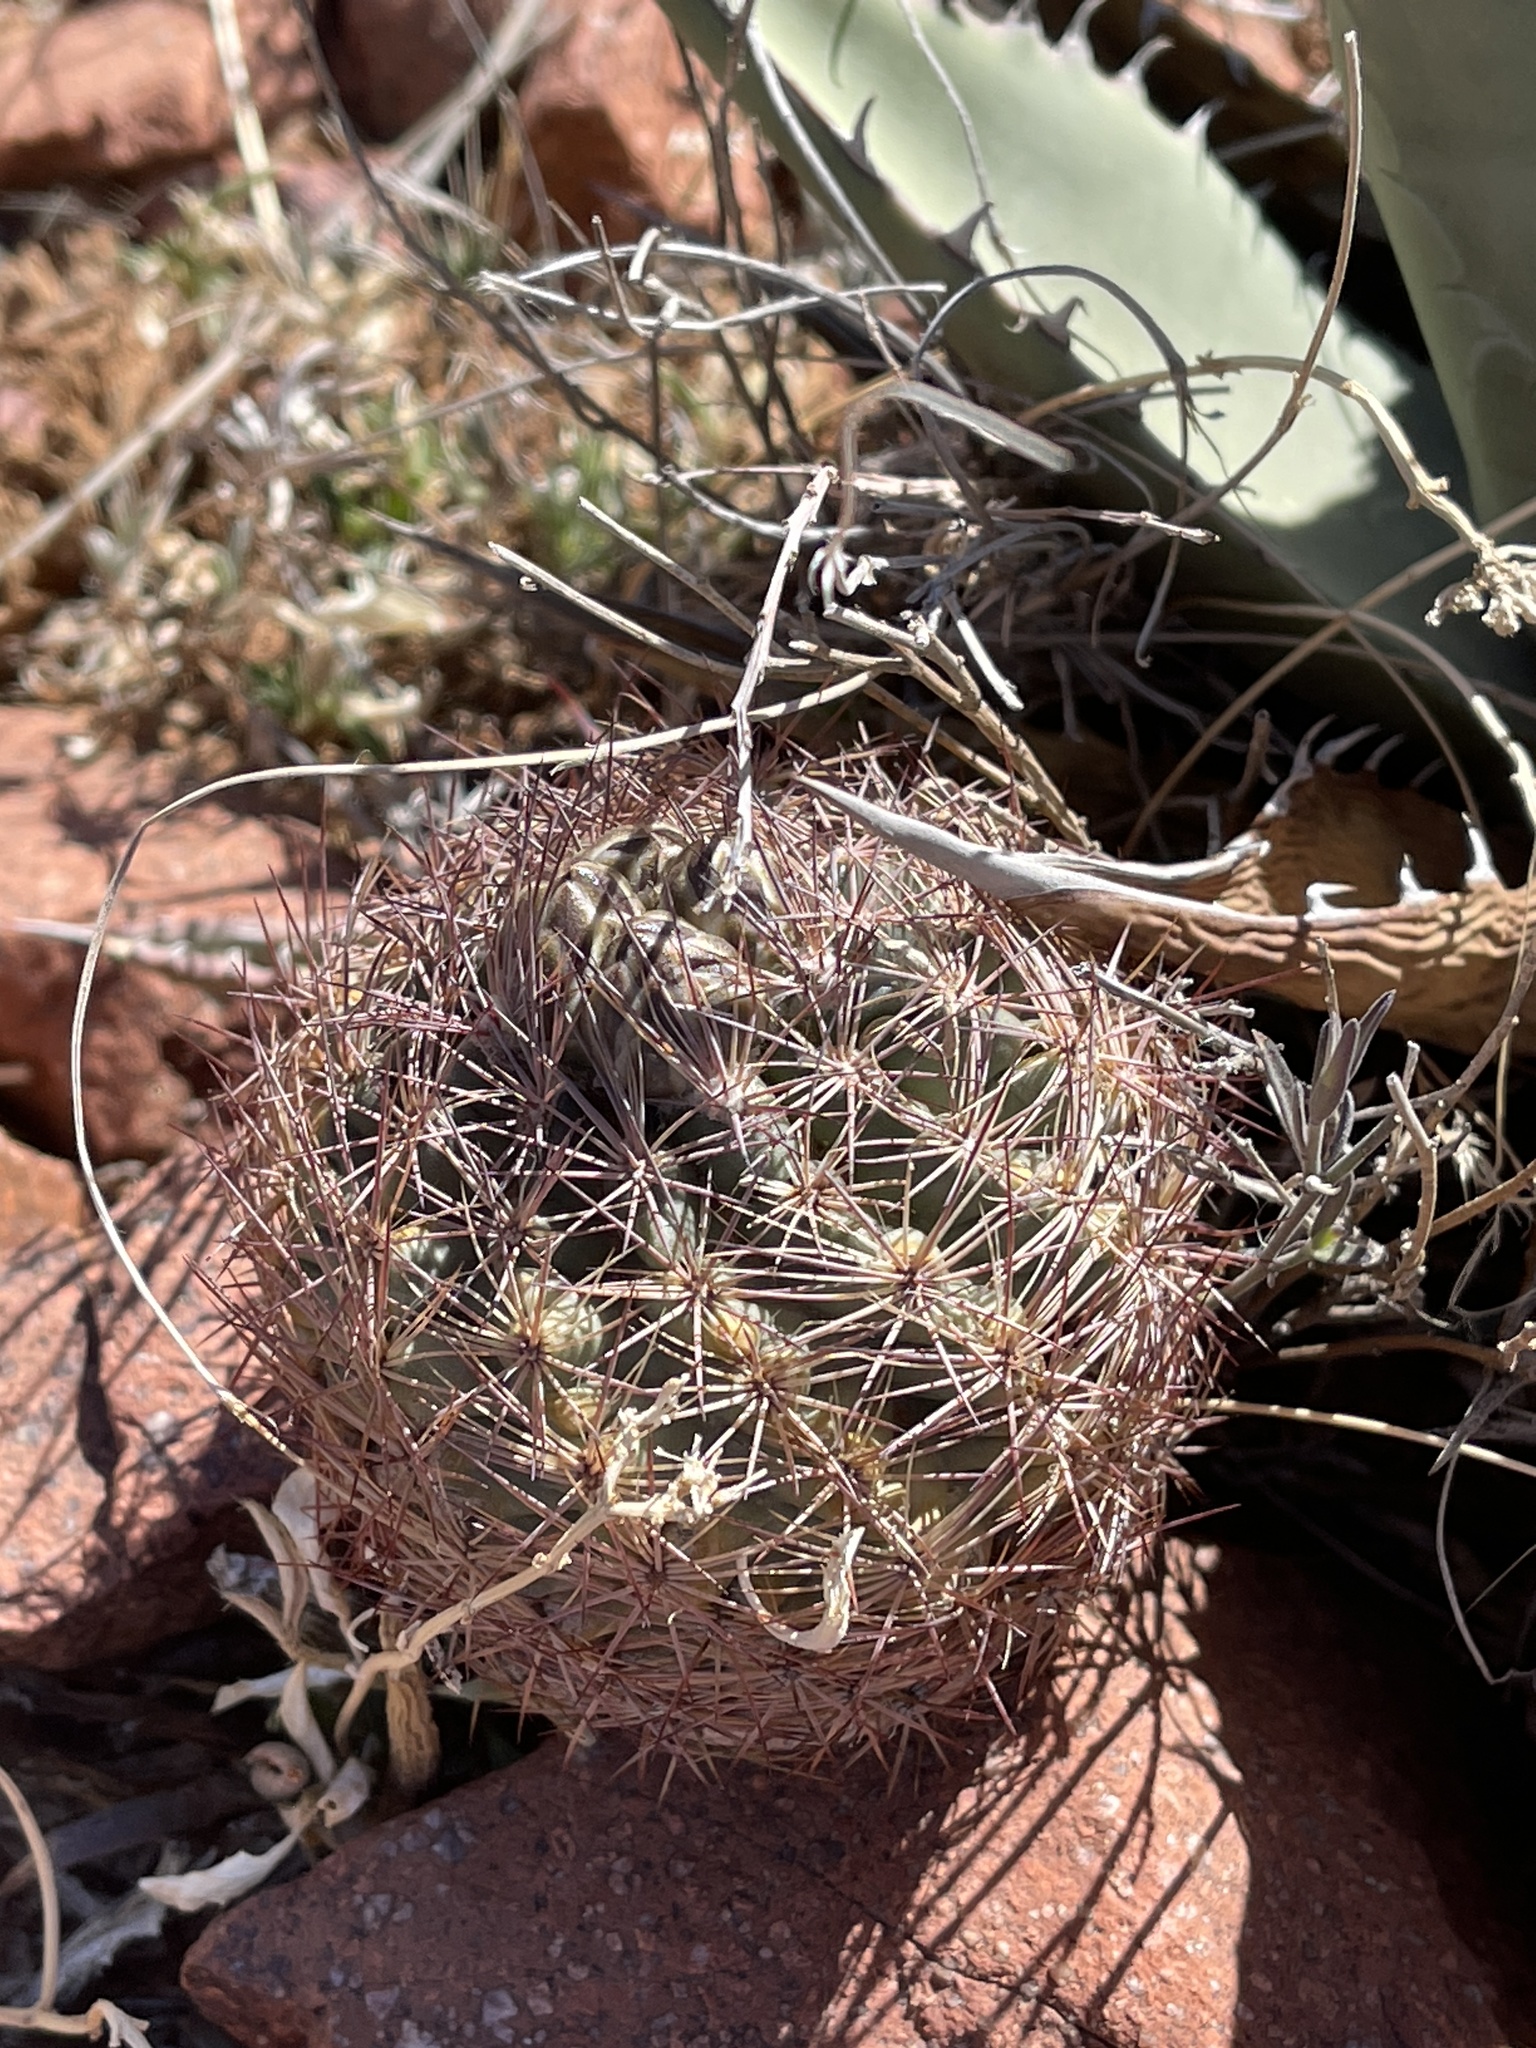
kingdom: Plantae
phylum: Tracheophyta
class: Magnoliopsida
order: Caryophyllales
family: Cactaceae
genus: Sclerocactus
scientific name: Sclerocactus intertextus
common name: White fish-hook cactus
